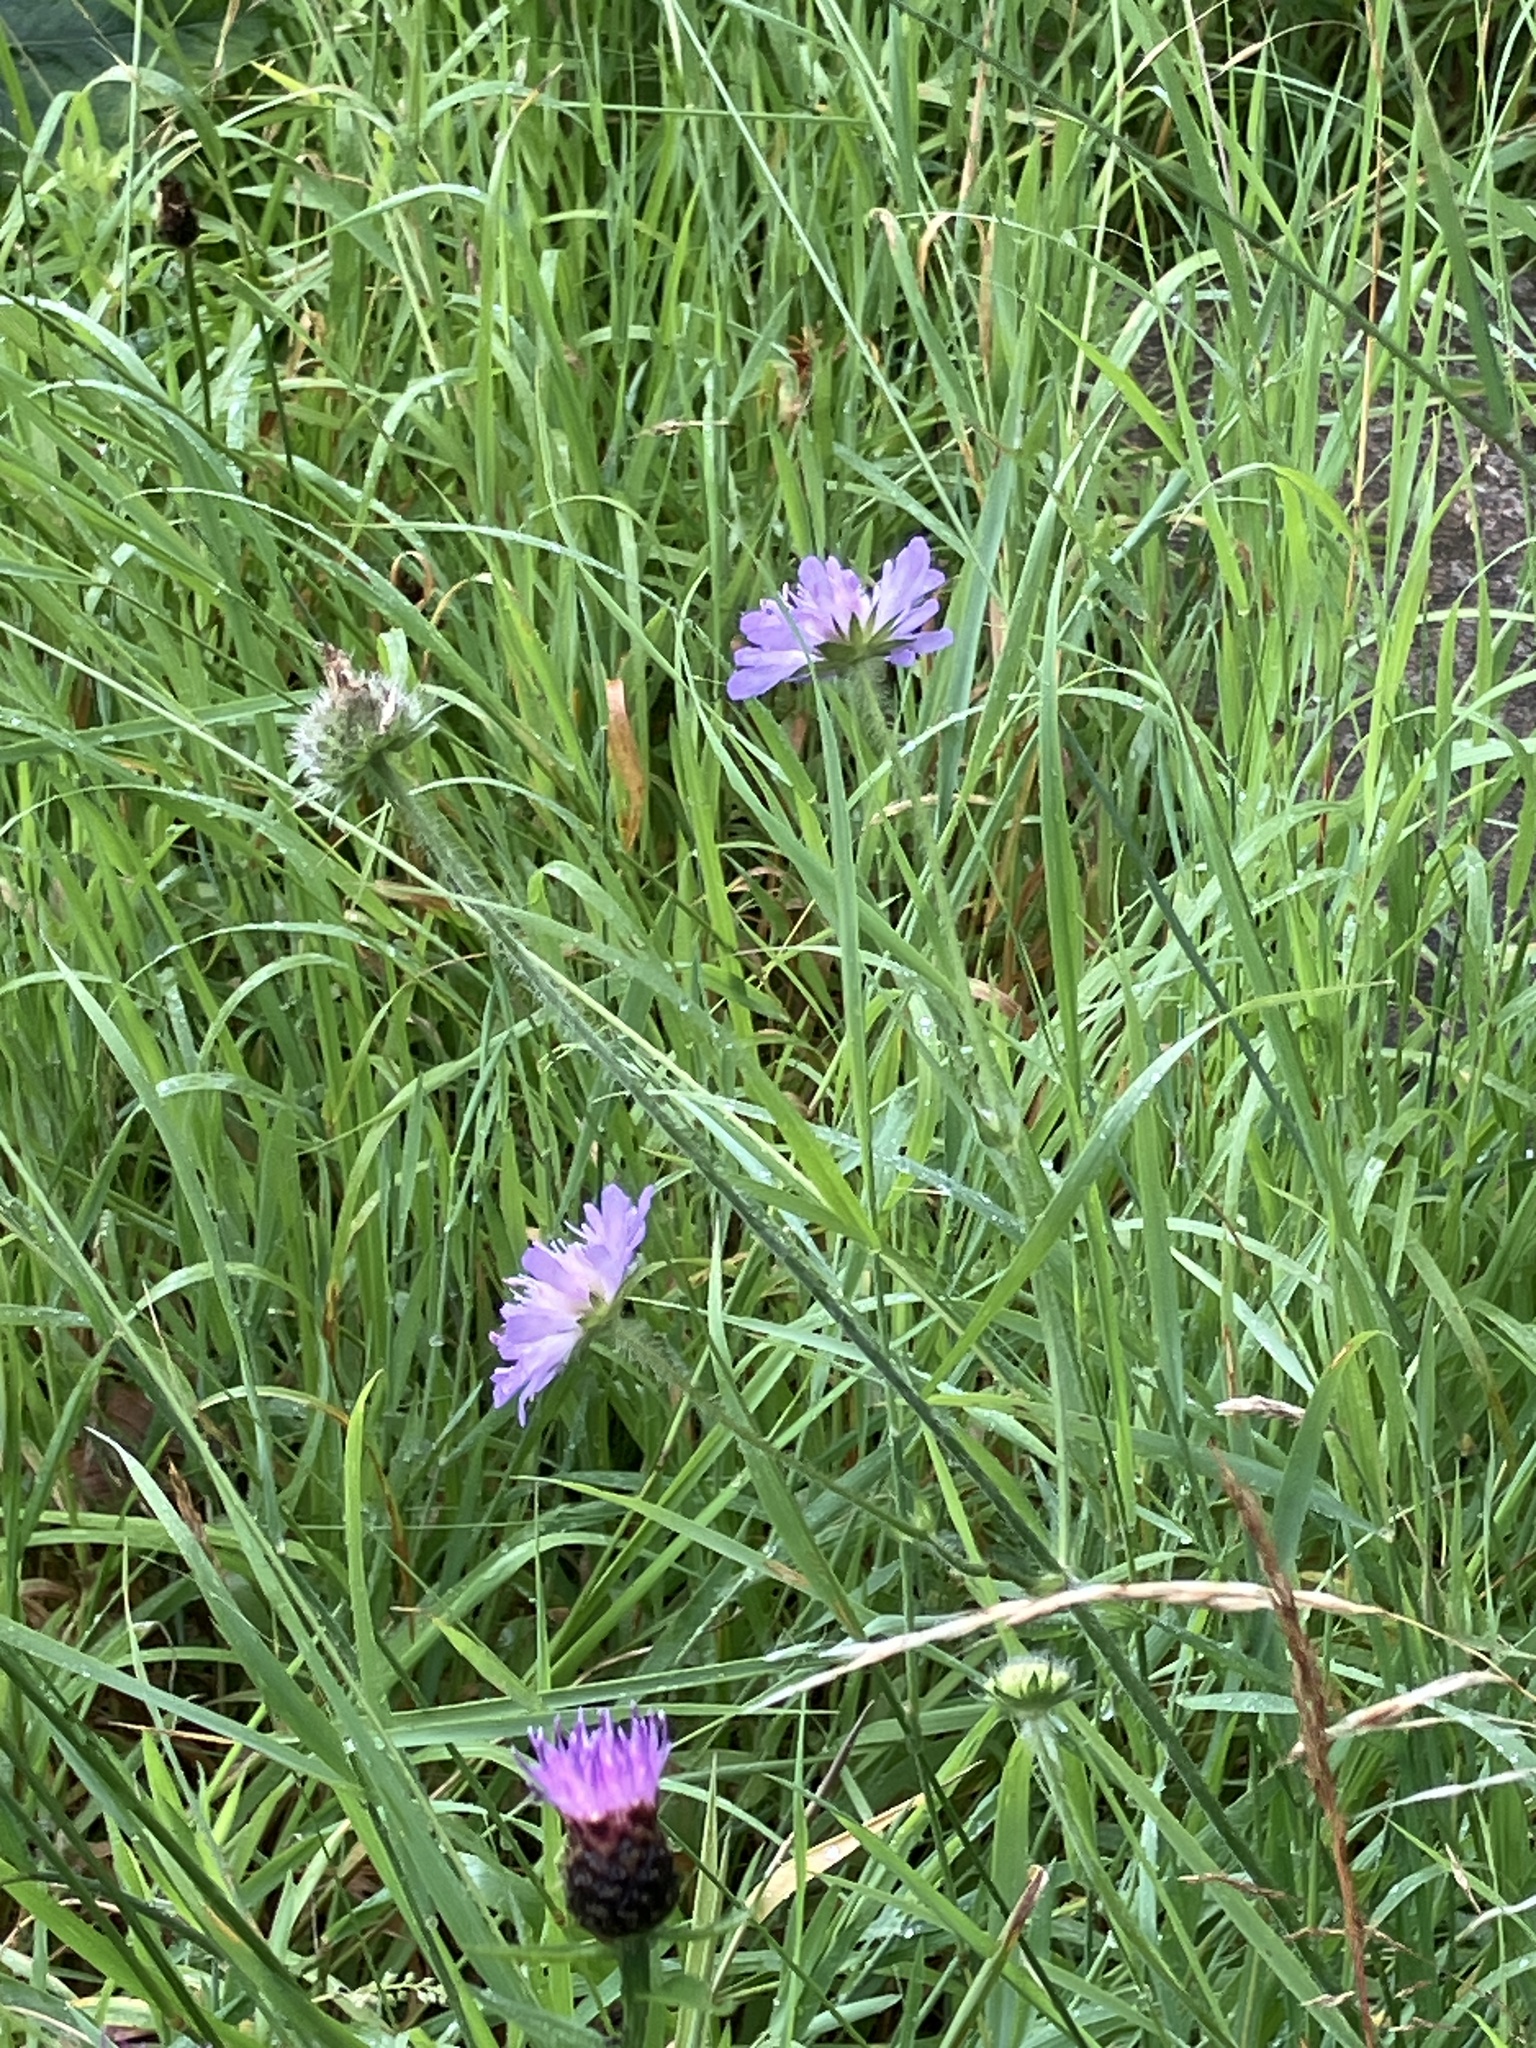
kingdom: Plantae
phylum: Tracheophyta
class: Magnoliopsida
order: Dipsacales
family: Caprifoliaceae
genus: Knautia
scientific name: Knautia arvensis
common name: Field scabiosa
